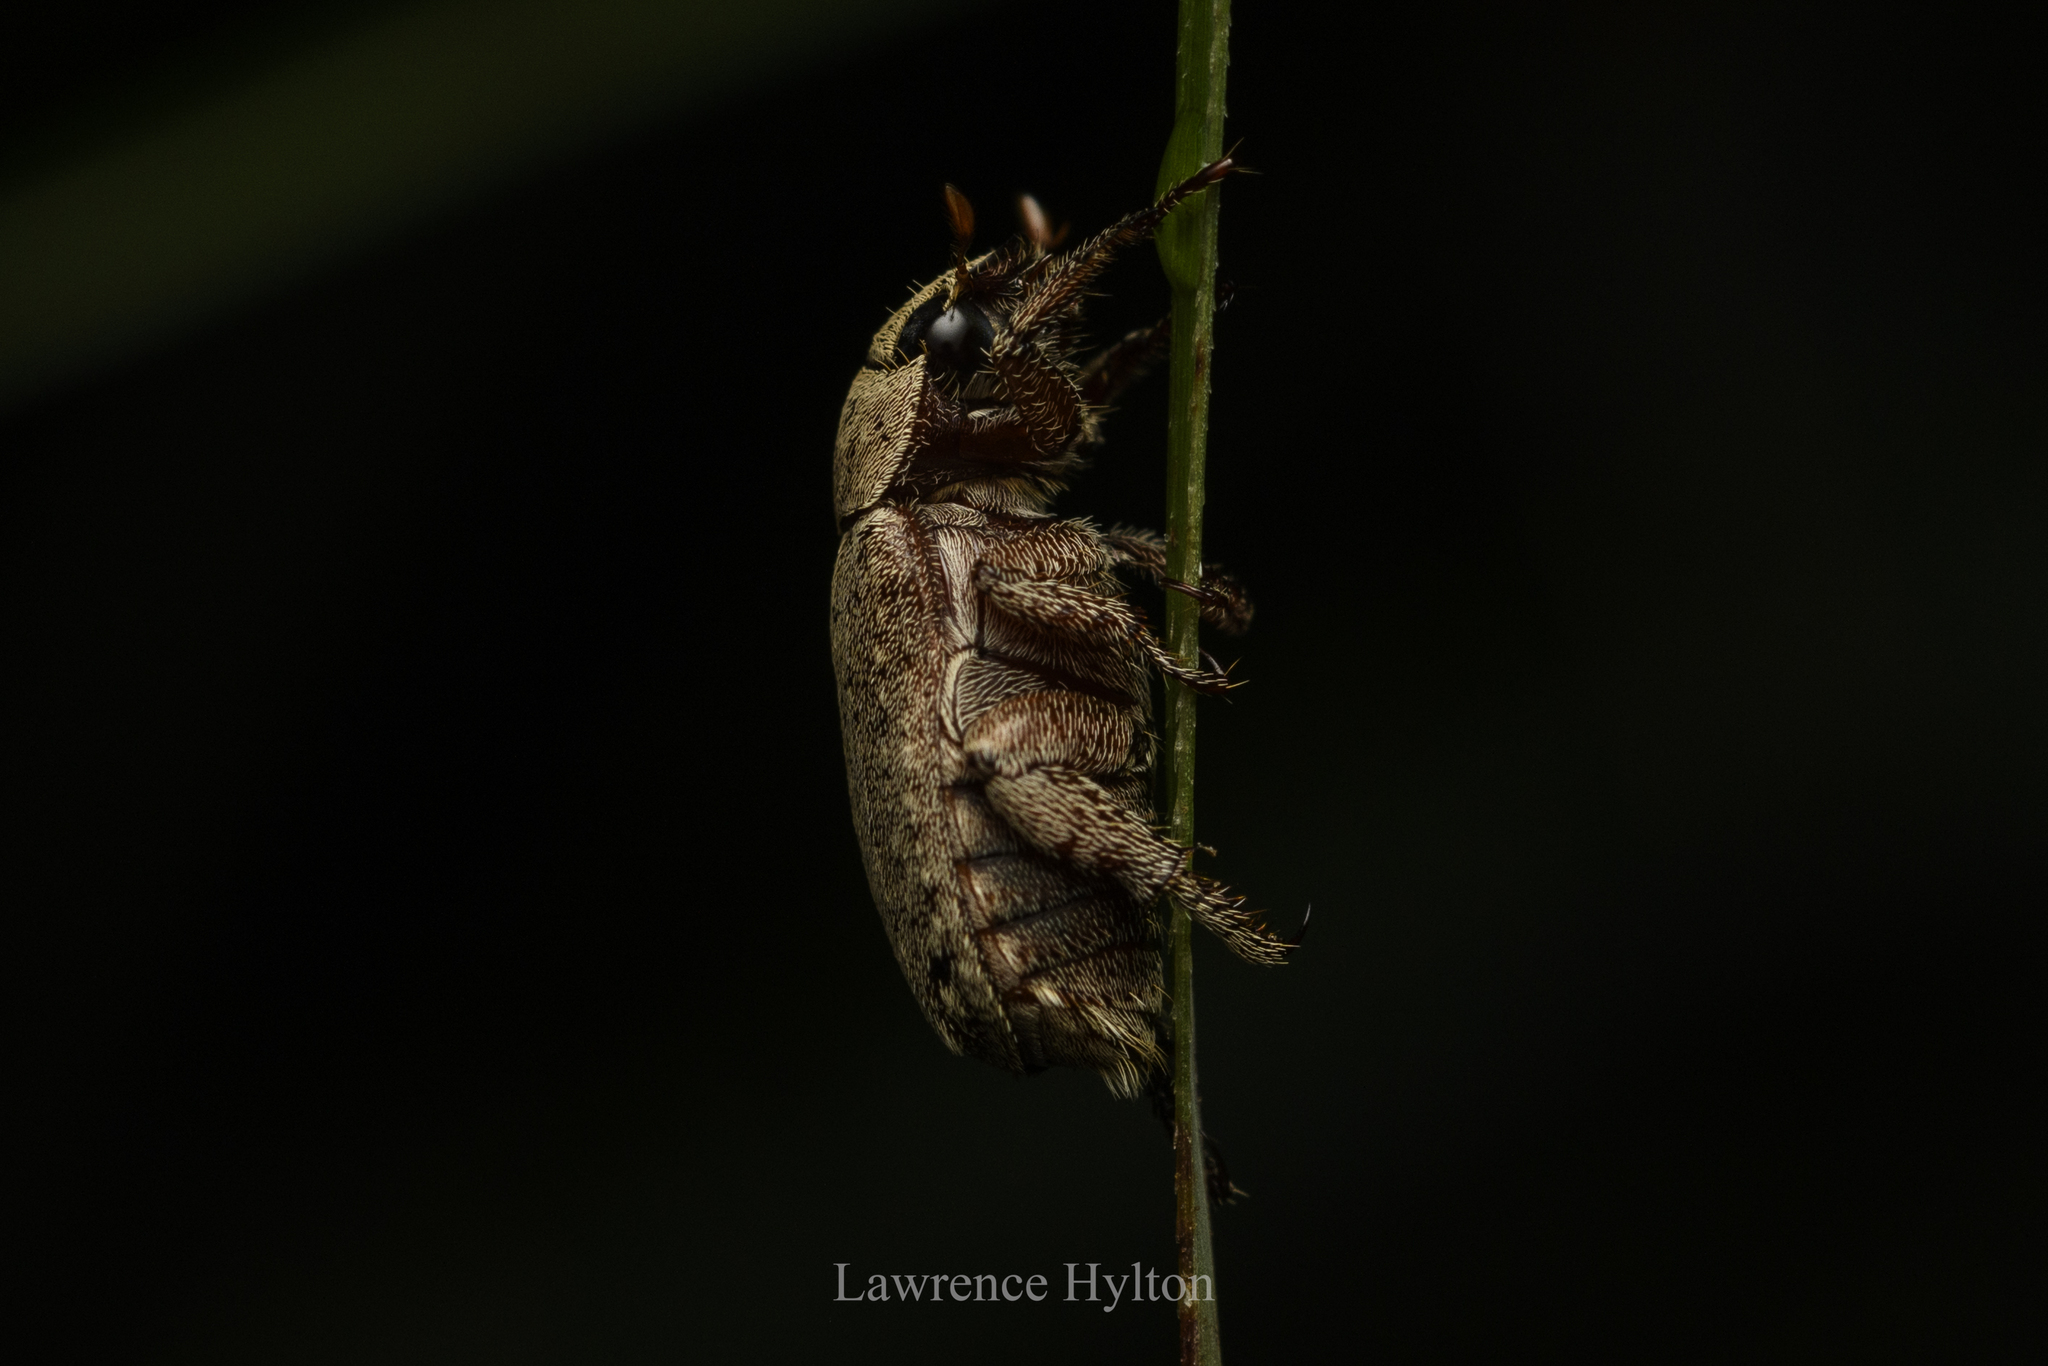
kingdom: Animalia
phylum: Arthropoda
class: Insecta
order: Coleoptera
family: Scarabaeidae
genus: Adoretus
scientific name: Adoretus sinicus
